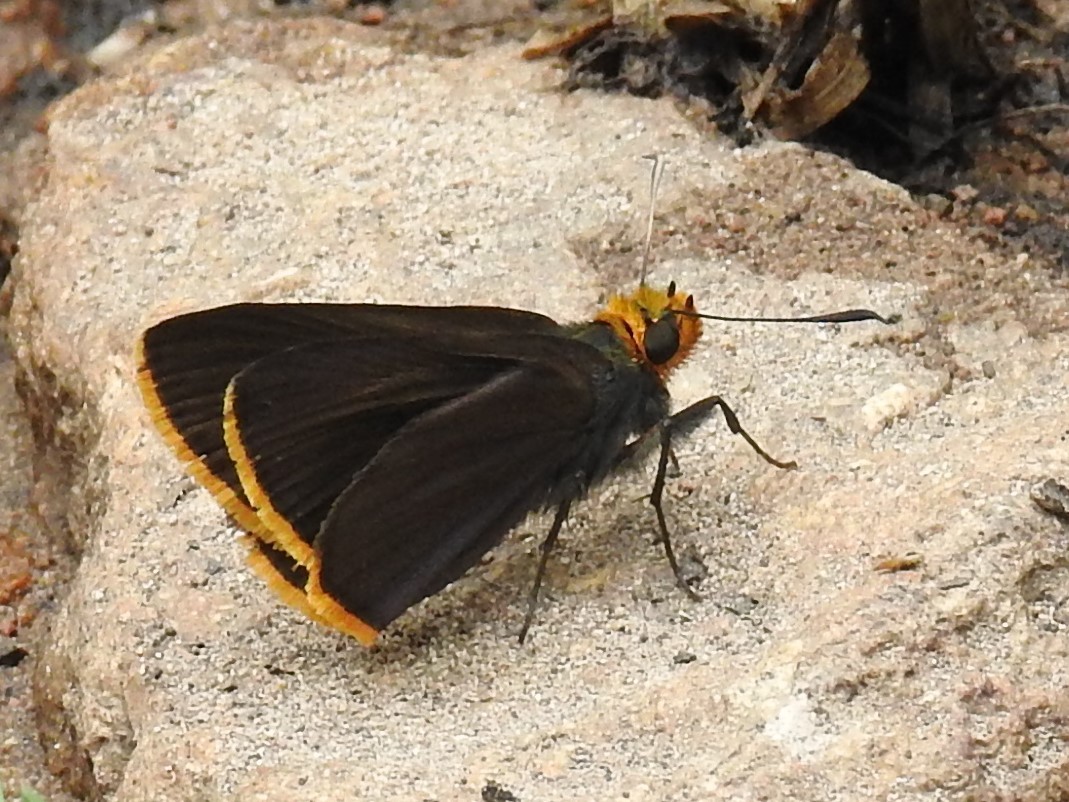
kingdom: Animalia
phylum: Arthropoda
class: Insecta
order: Lepidoptera
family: Hesperiidae
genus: Mastor
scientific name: Mastor fimbriata
